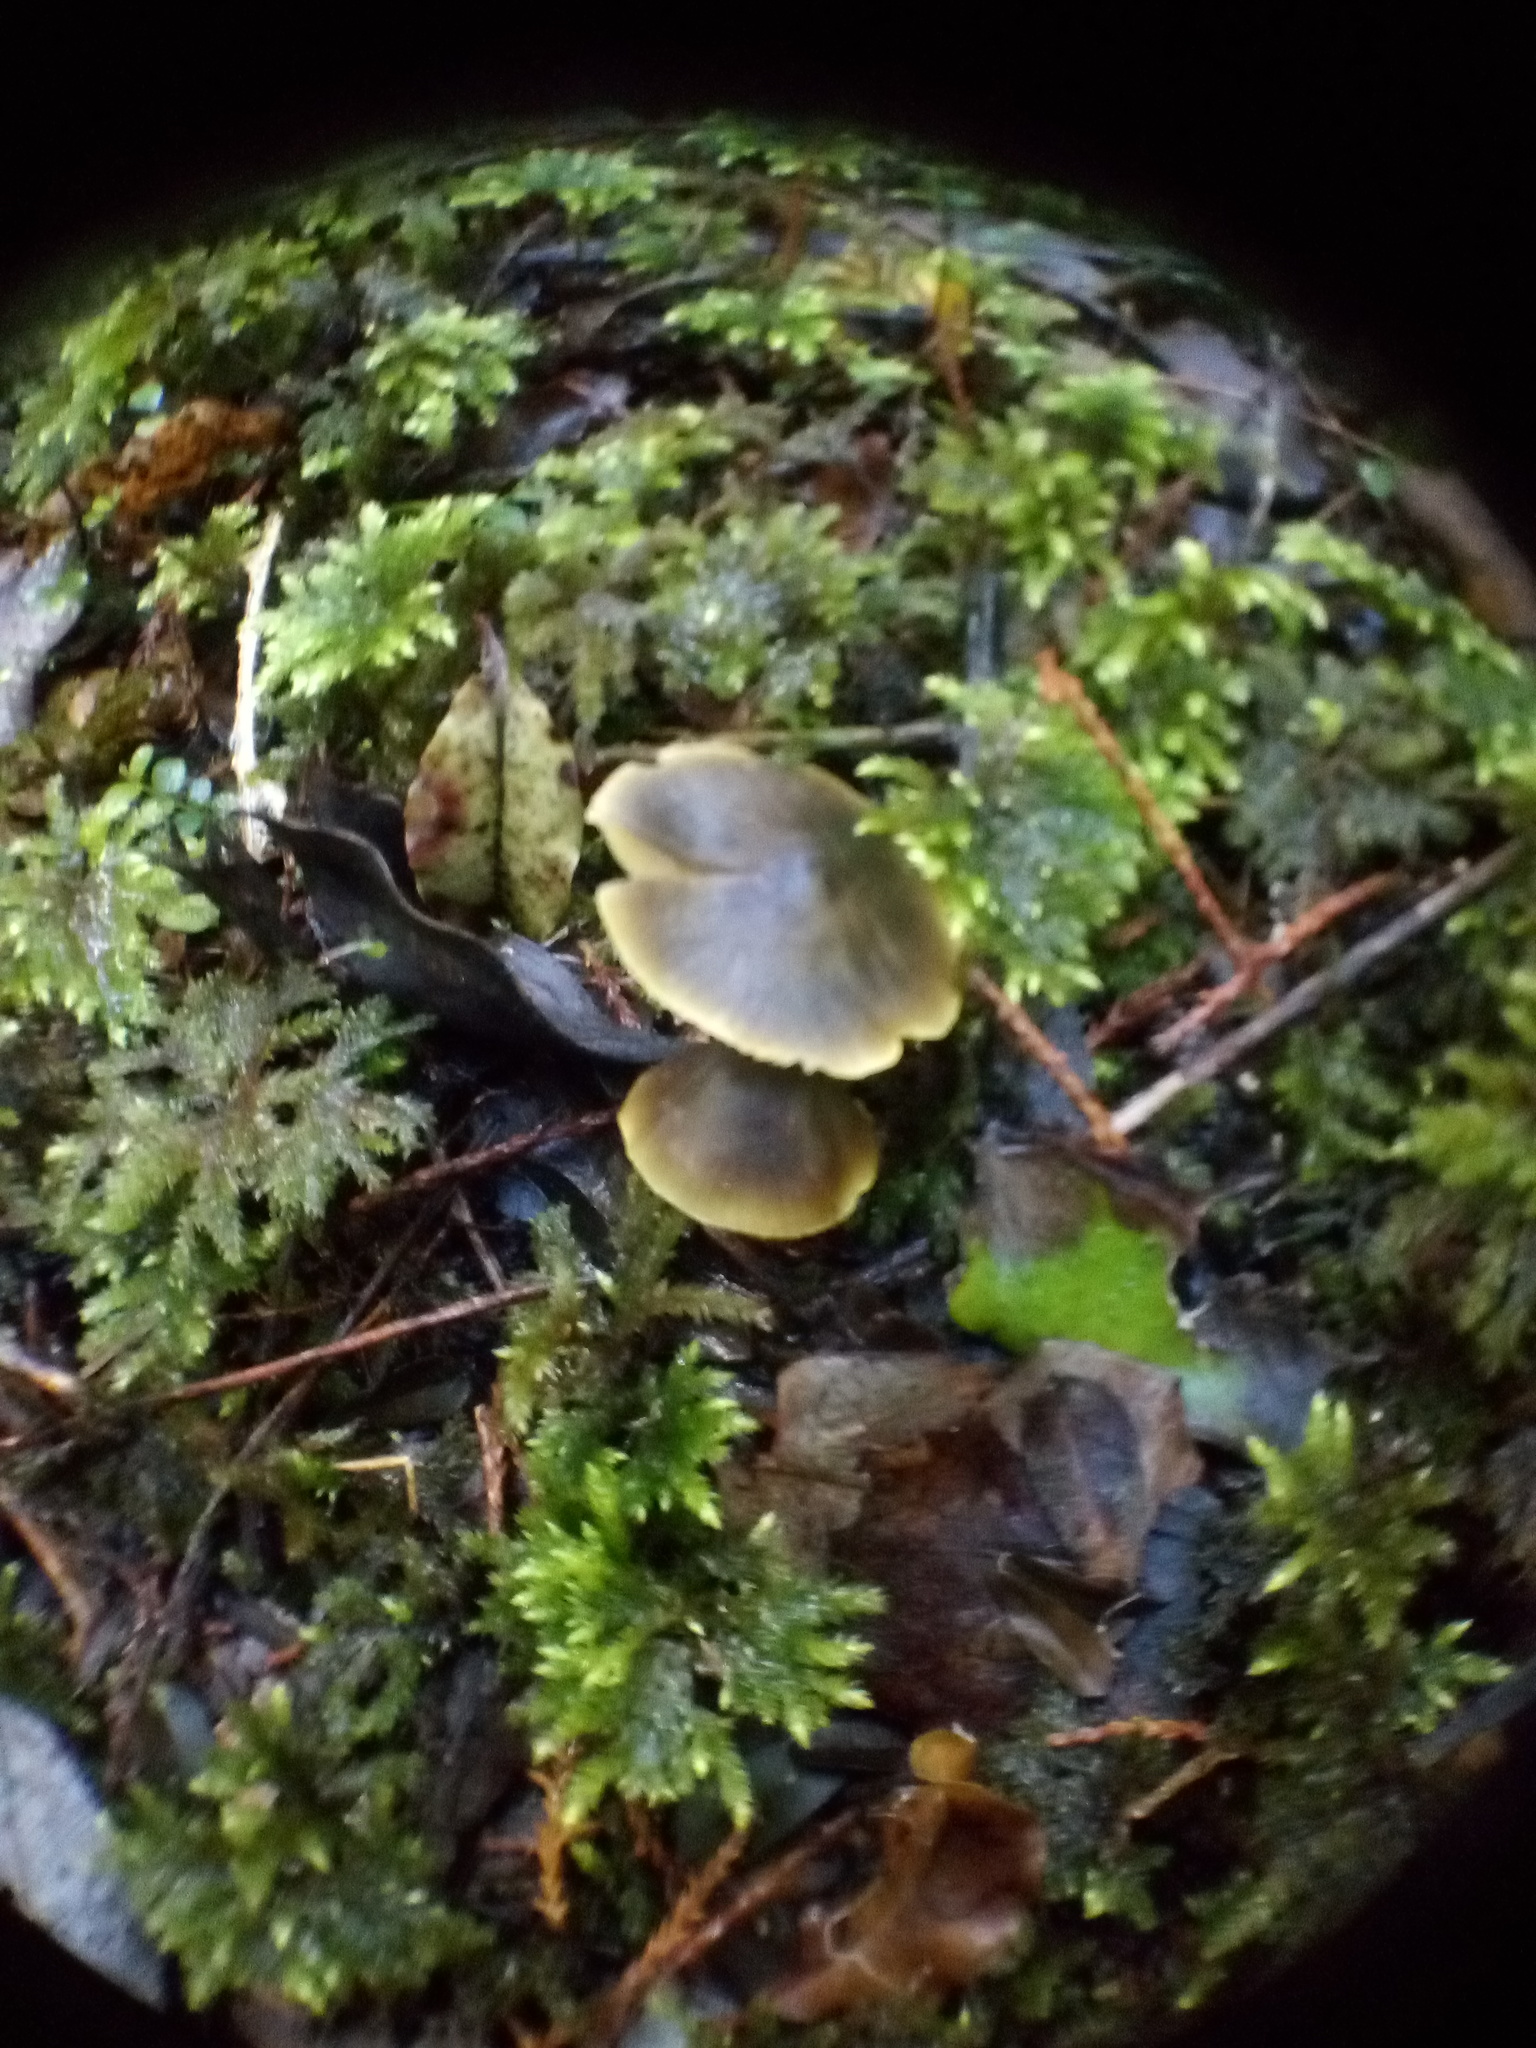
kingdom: Fungi
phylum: Basidiomycota
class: Agaricomycetes
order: Agaricales
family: Hygrophoraceae
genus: Hygrocybe
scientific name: Hygrocybe fuscoaurantiaca
